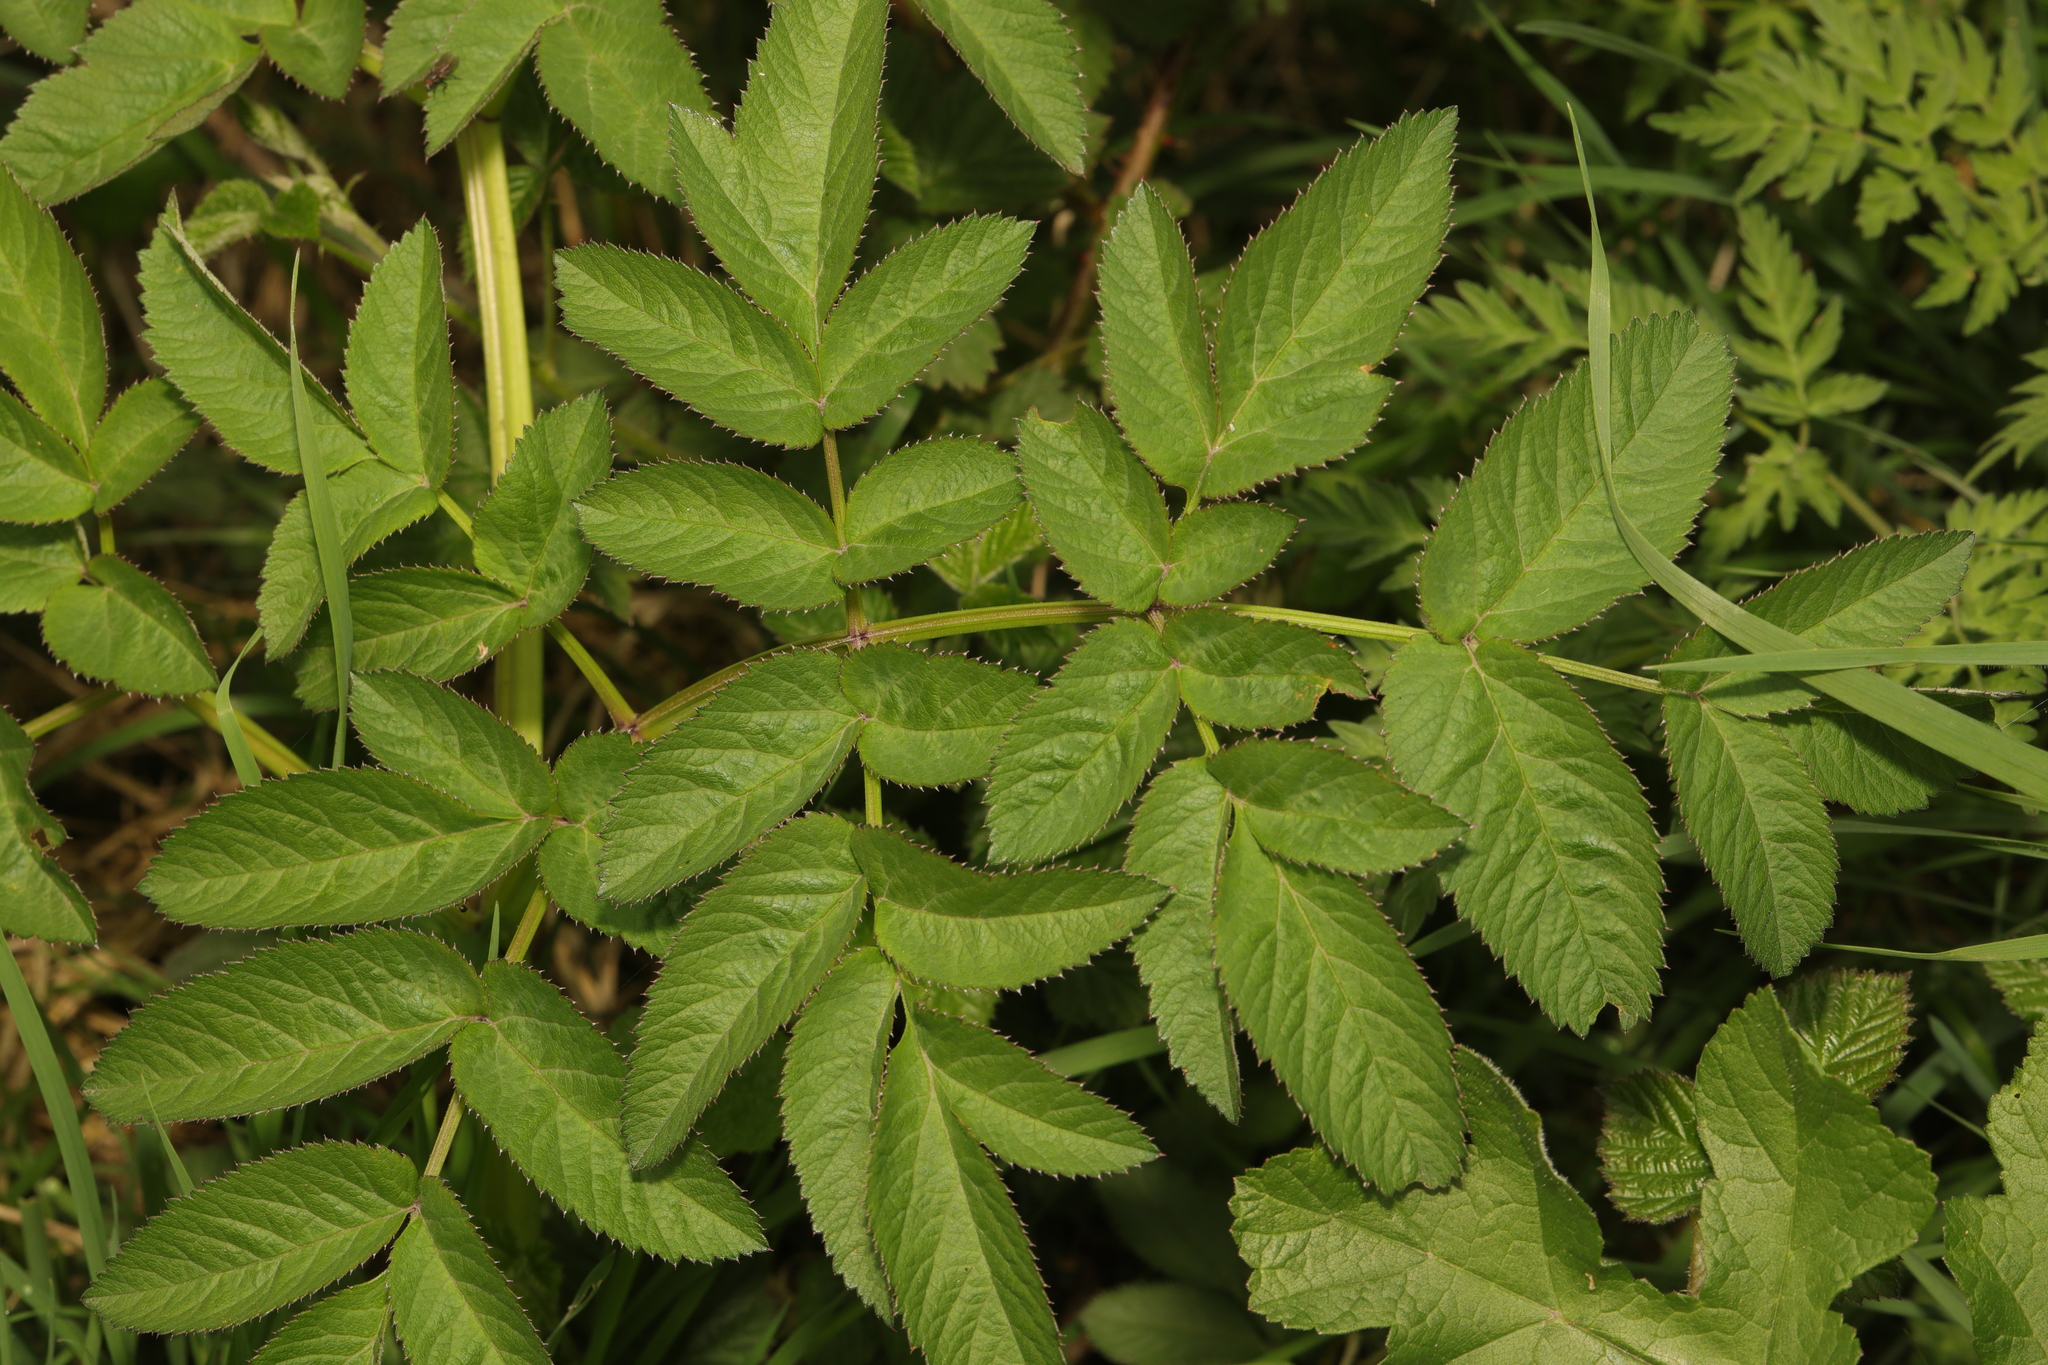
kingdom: Plantae
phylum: Tracheophyta
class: Magnoliopsida
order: Apiales
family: Apiaceae
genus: Angelica
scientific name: Angelica sylvestris
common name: Wild angelica
